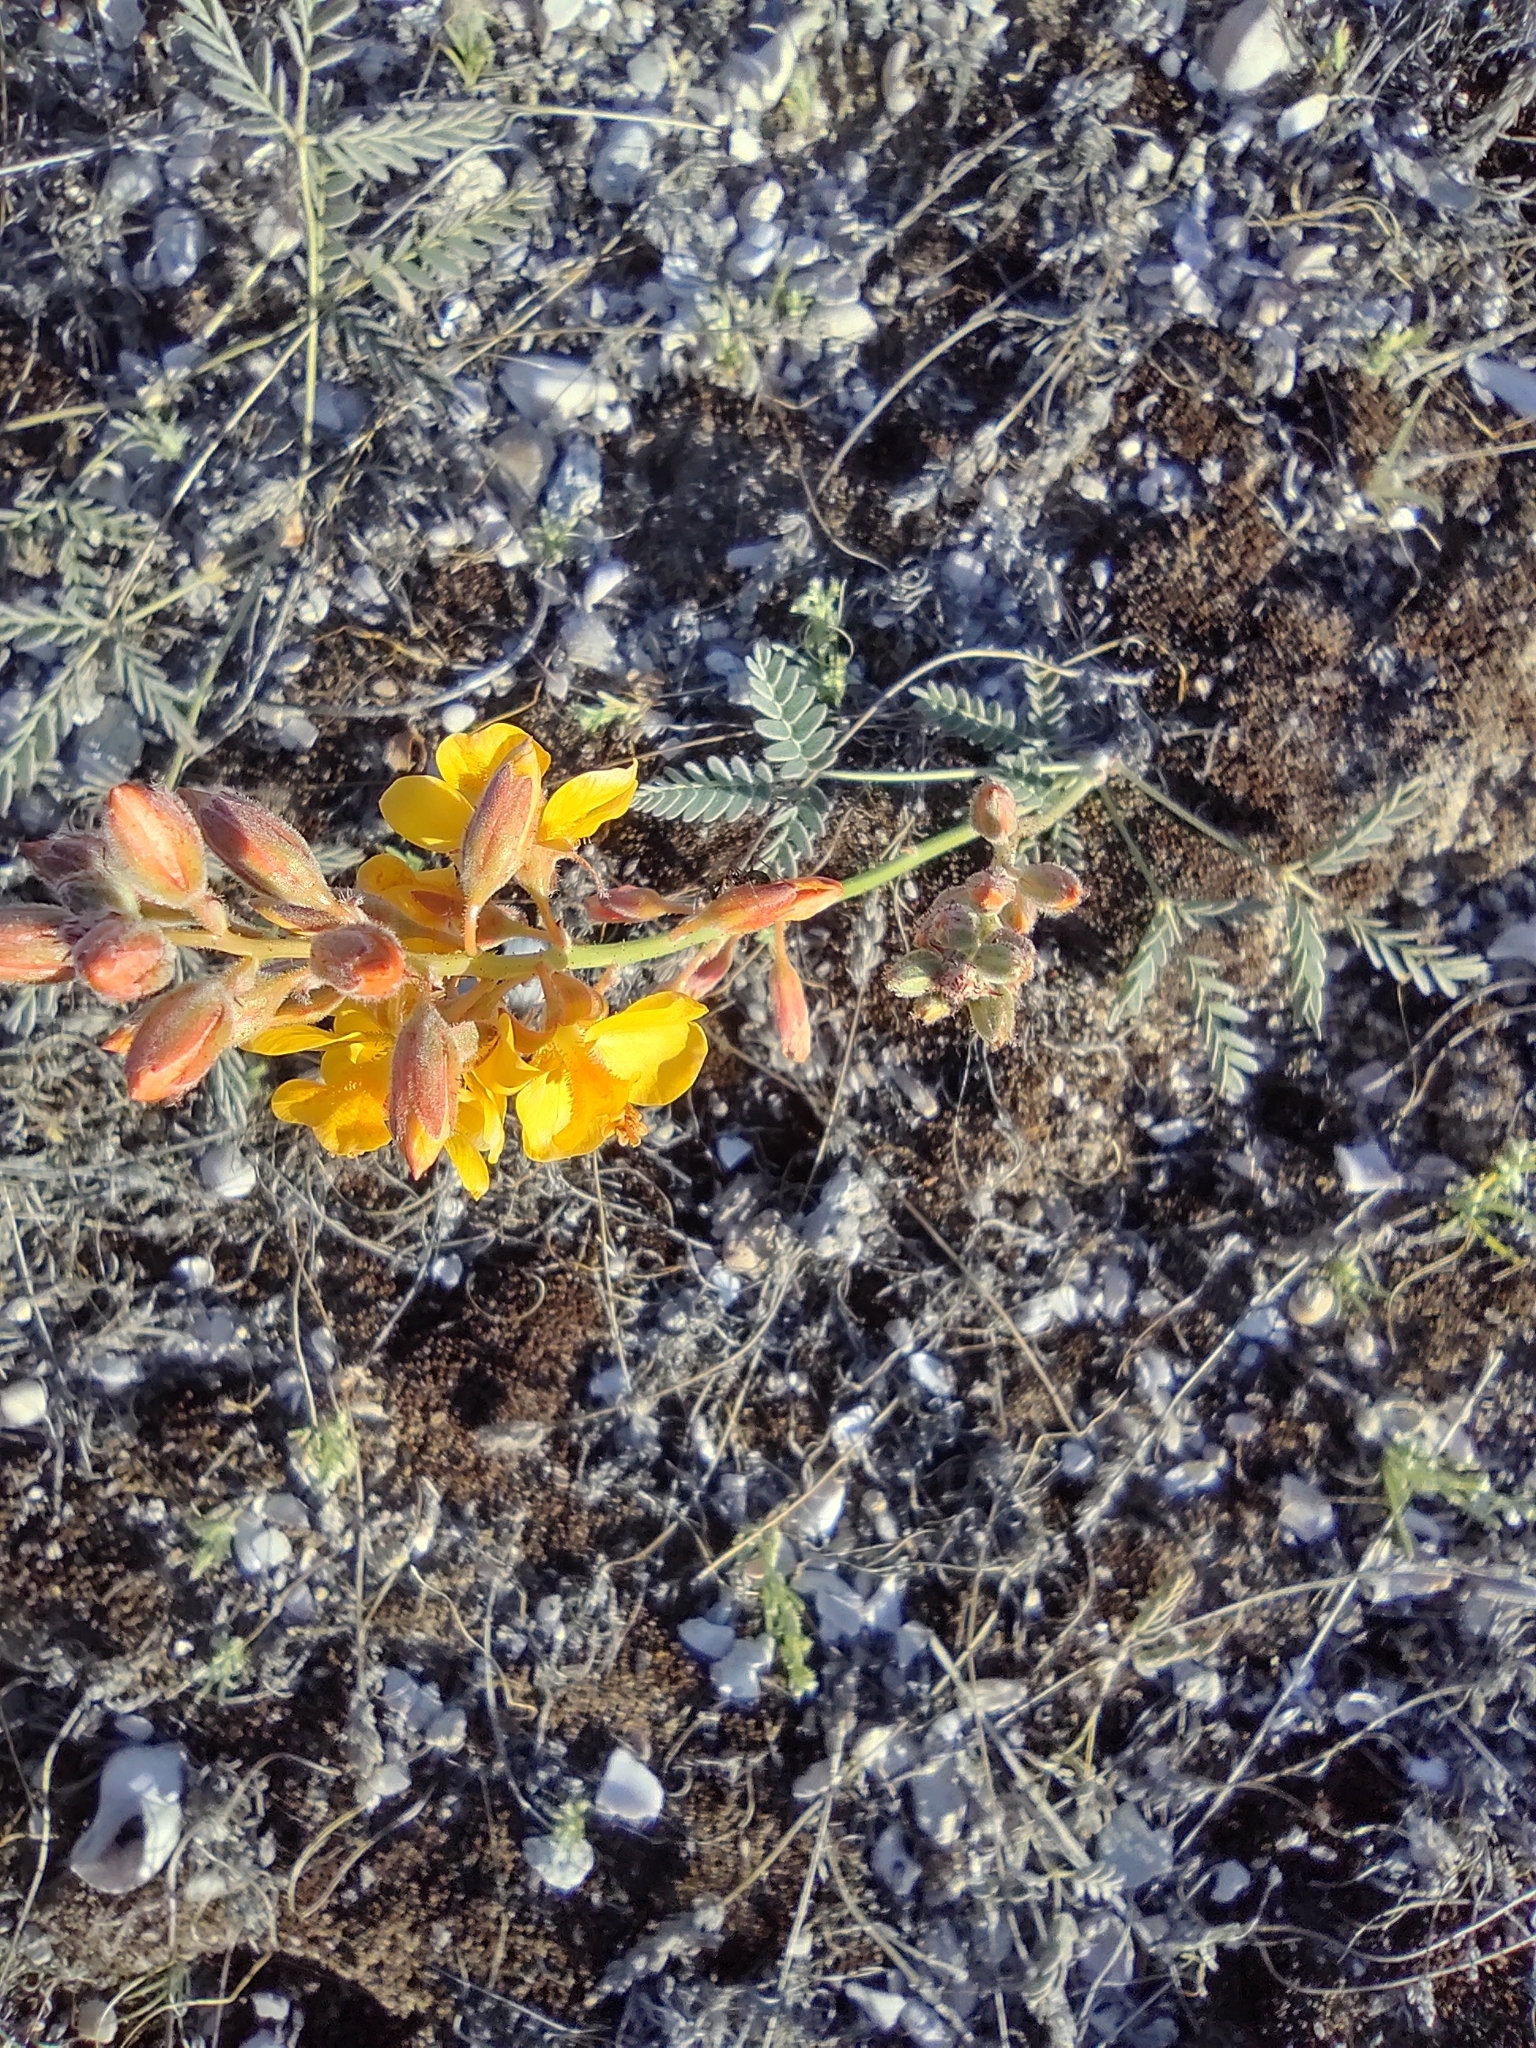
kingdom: Plantae
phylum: Tracheophyta
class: Magnoliopsida
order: Fabales
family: Fabaceae
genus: Hoffmannseggia
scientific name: Hoffmannseggia trifoliata
